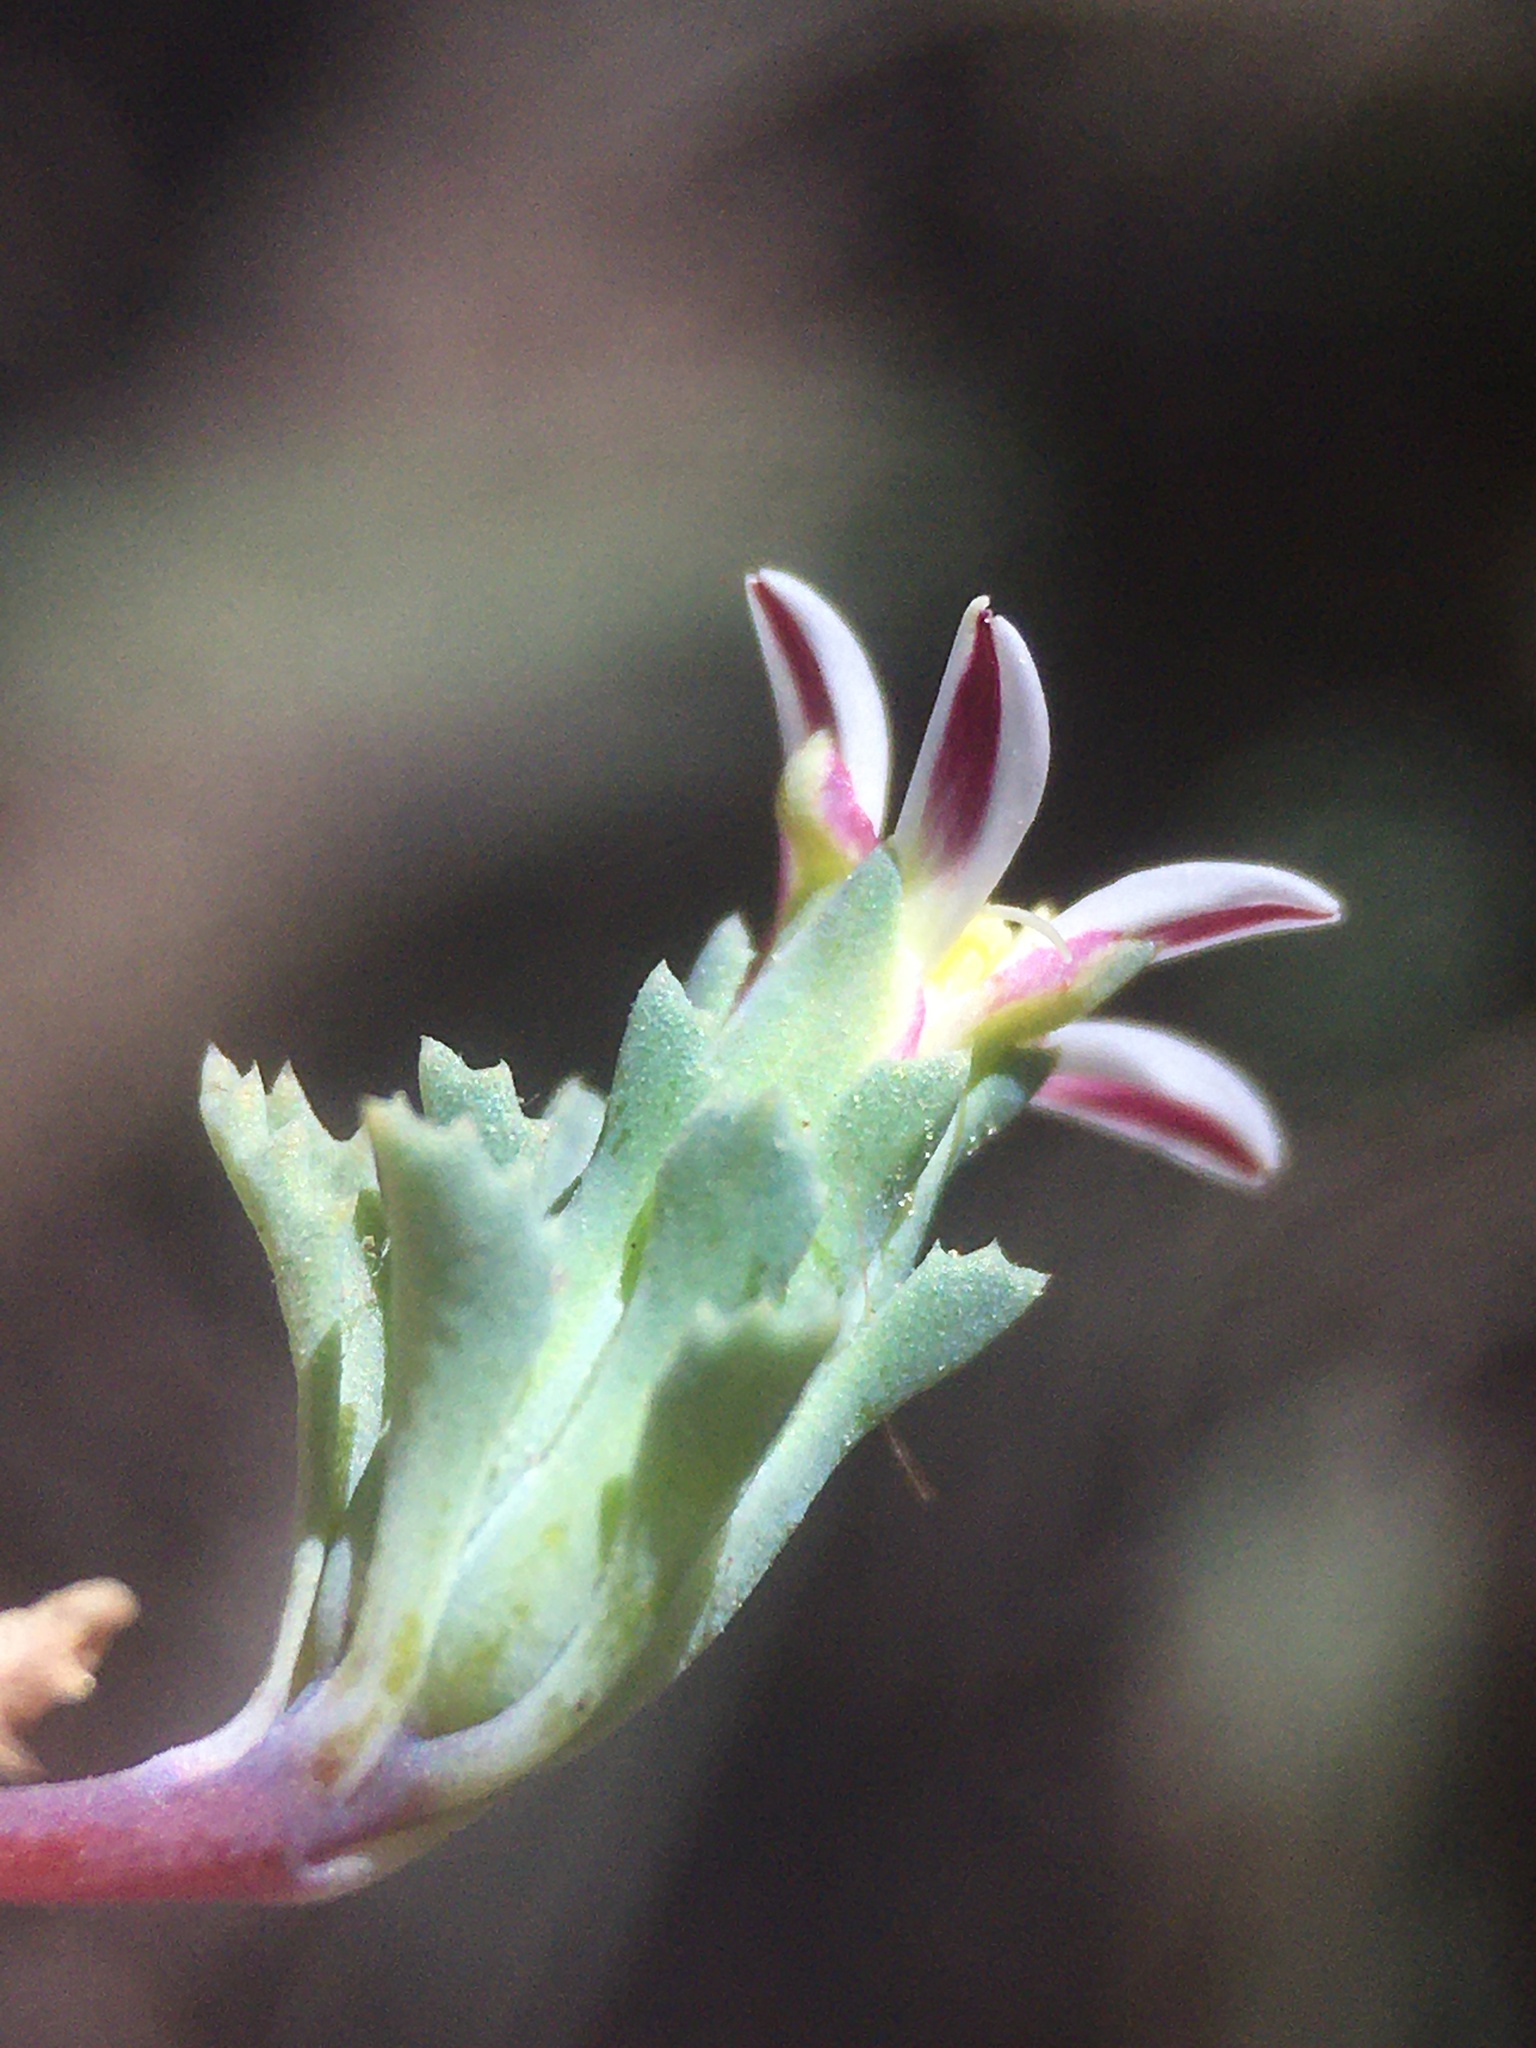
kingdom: Plantae
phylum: Tracheophyta
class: Magnoliopsida
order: Asterales
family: Asteraceae
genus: Chaetanthera
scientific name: Chaetanthera euphrasioides
